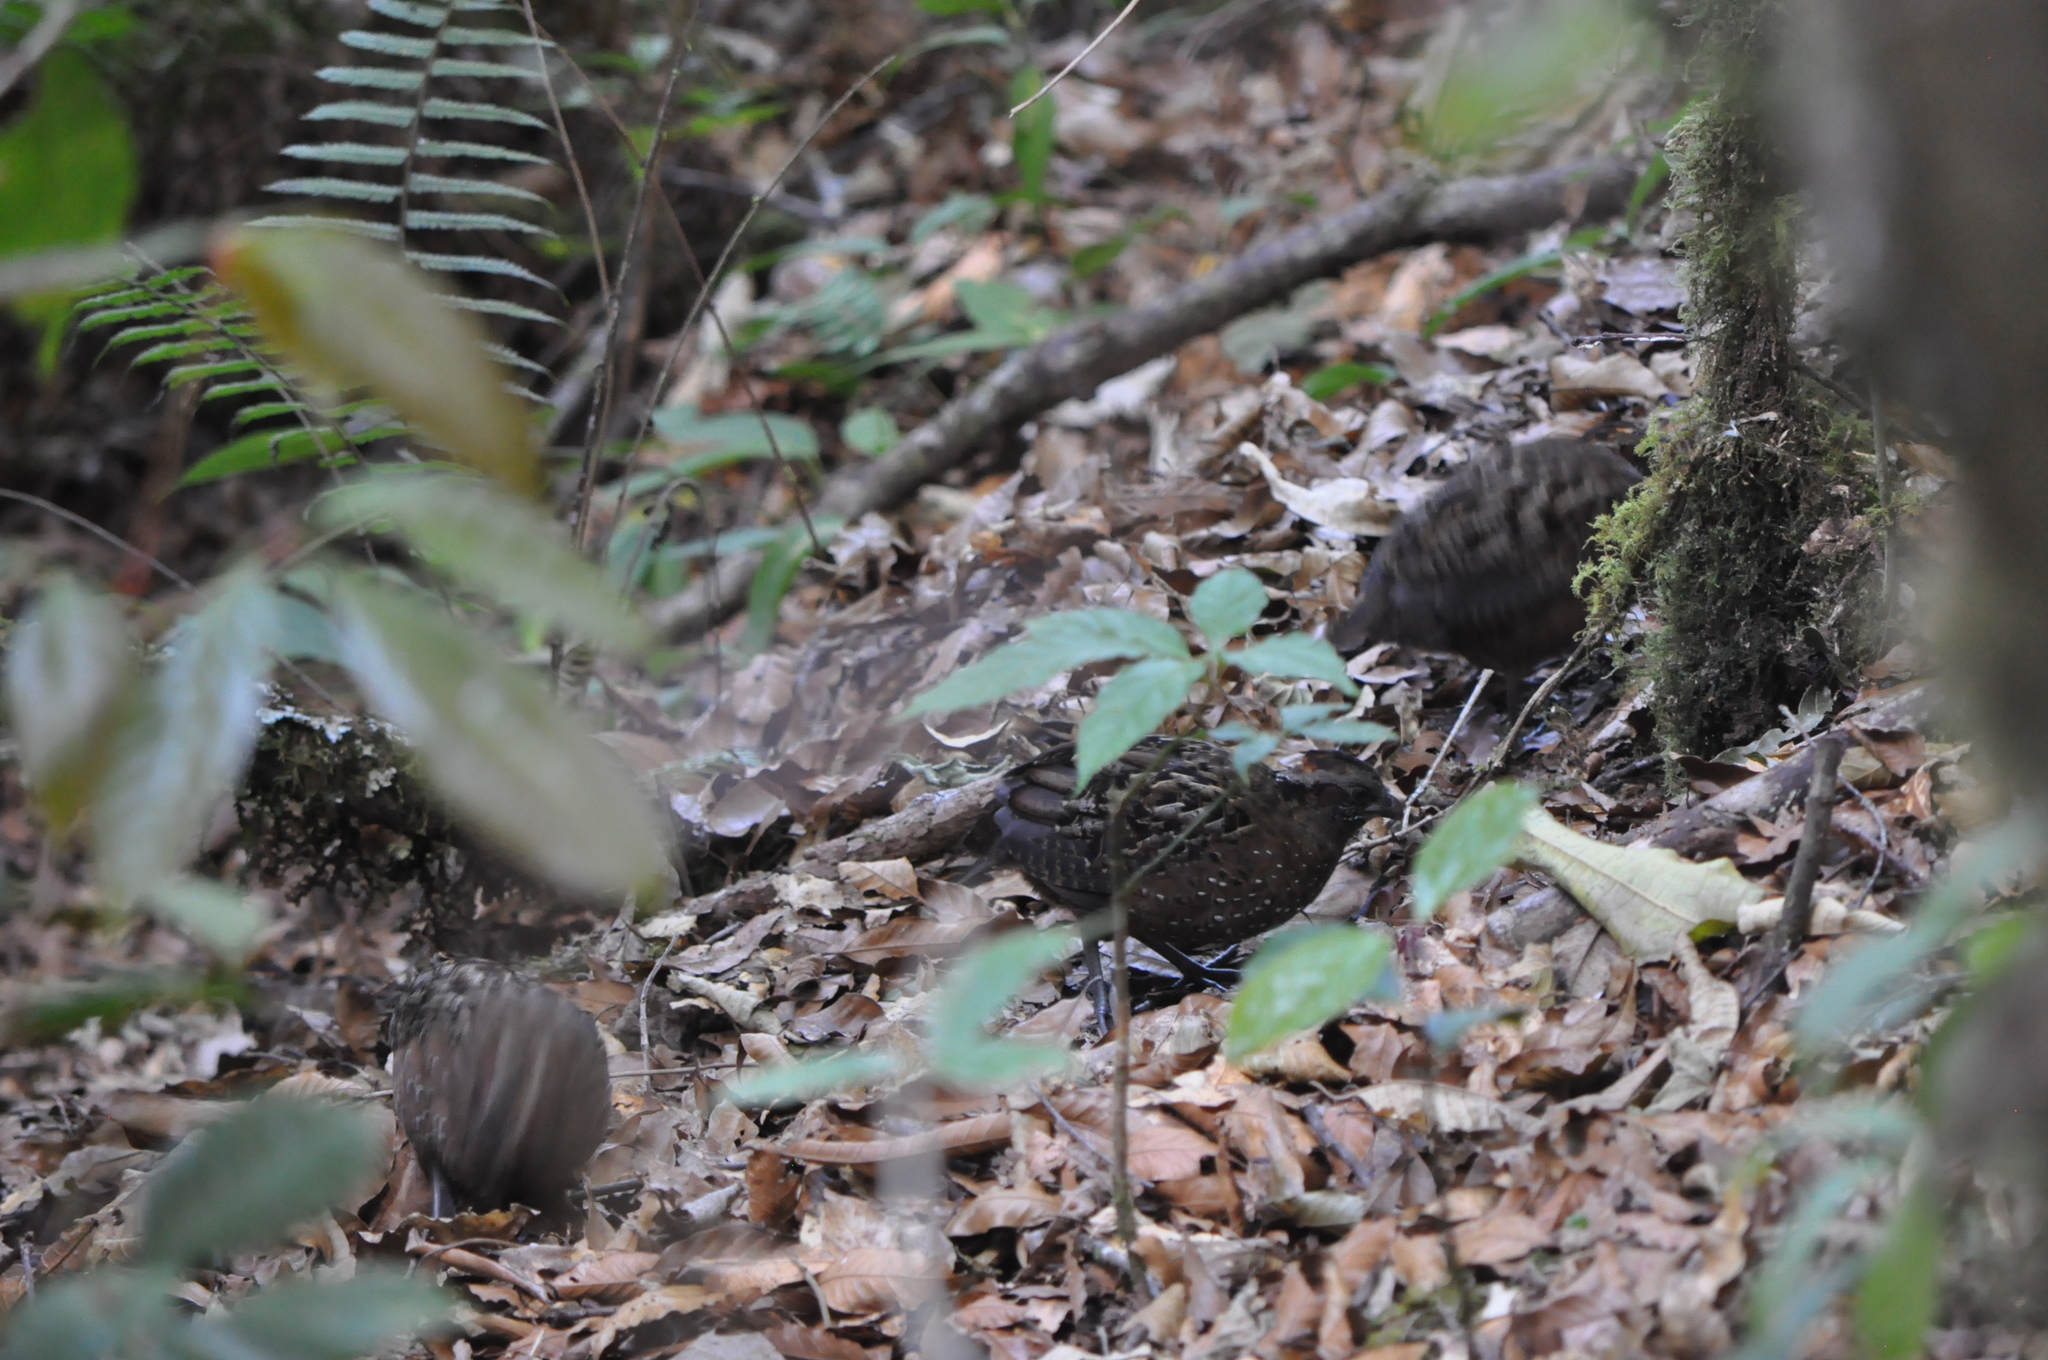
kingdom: Animalia
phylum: Chordata
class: Aves
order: Galliformes
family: Odontophoridae
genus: Odontophorus
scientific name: Odontophorus guttatus
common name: Spotted wood-quail
